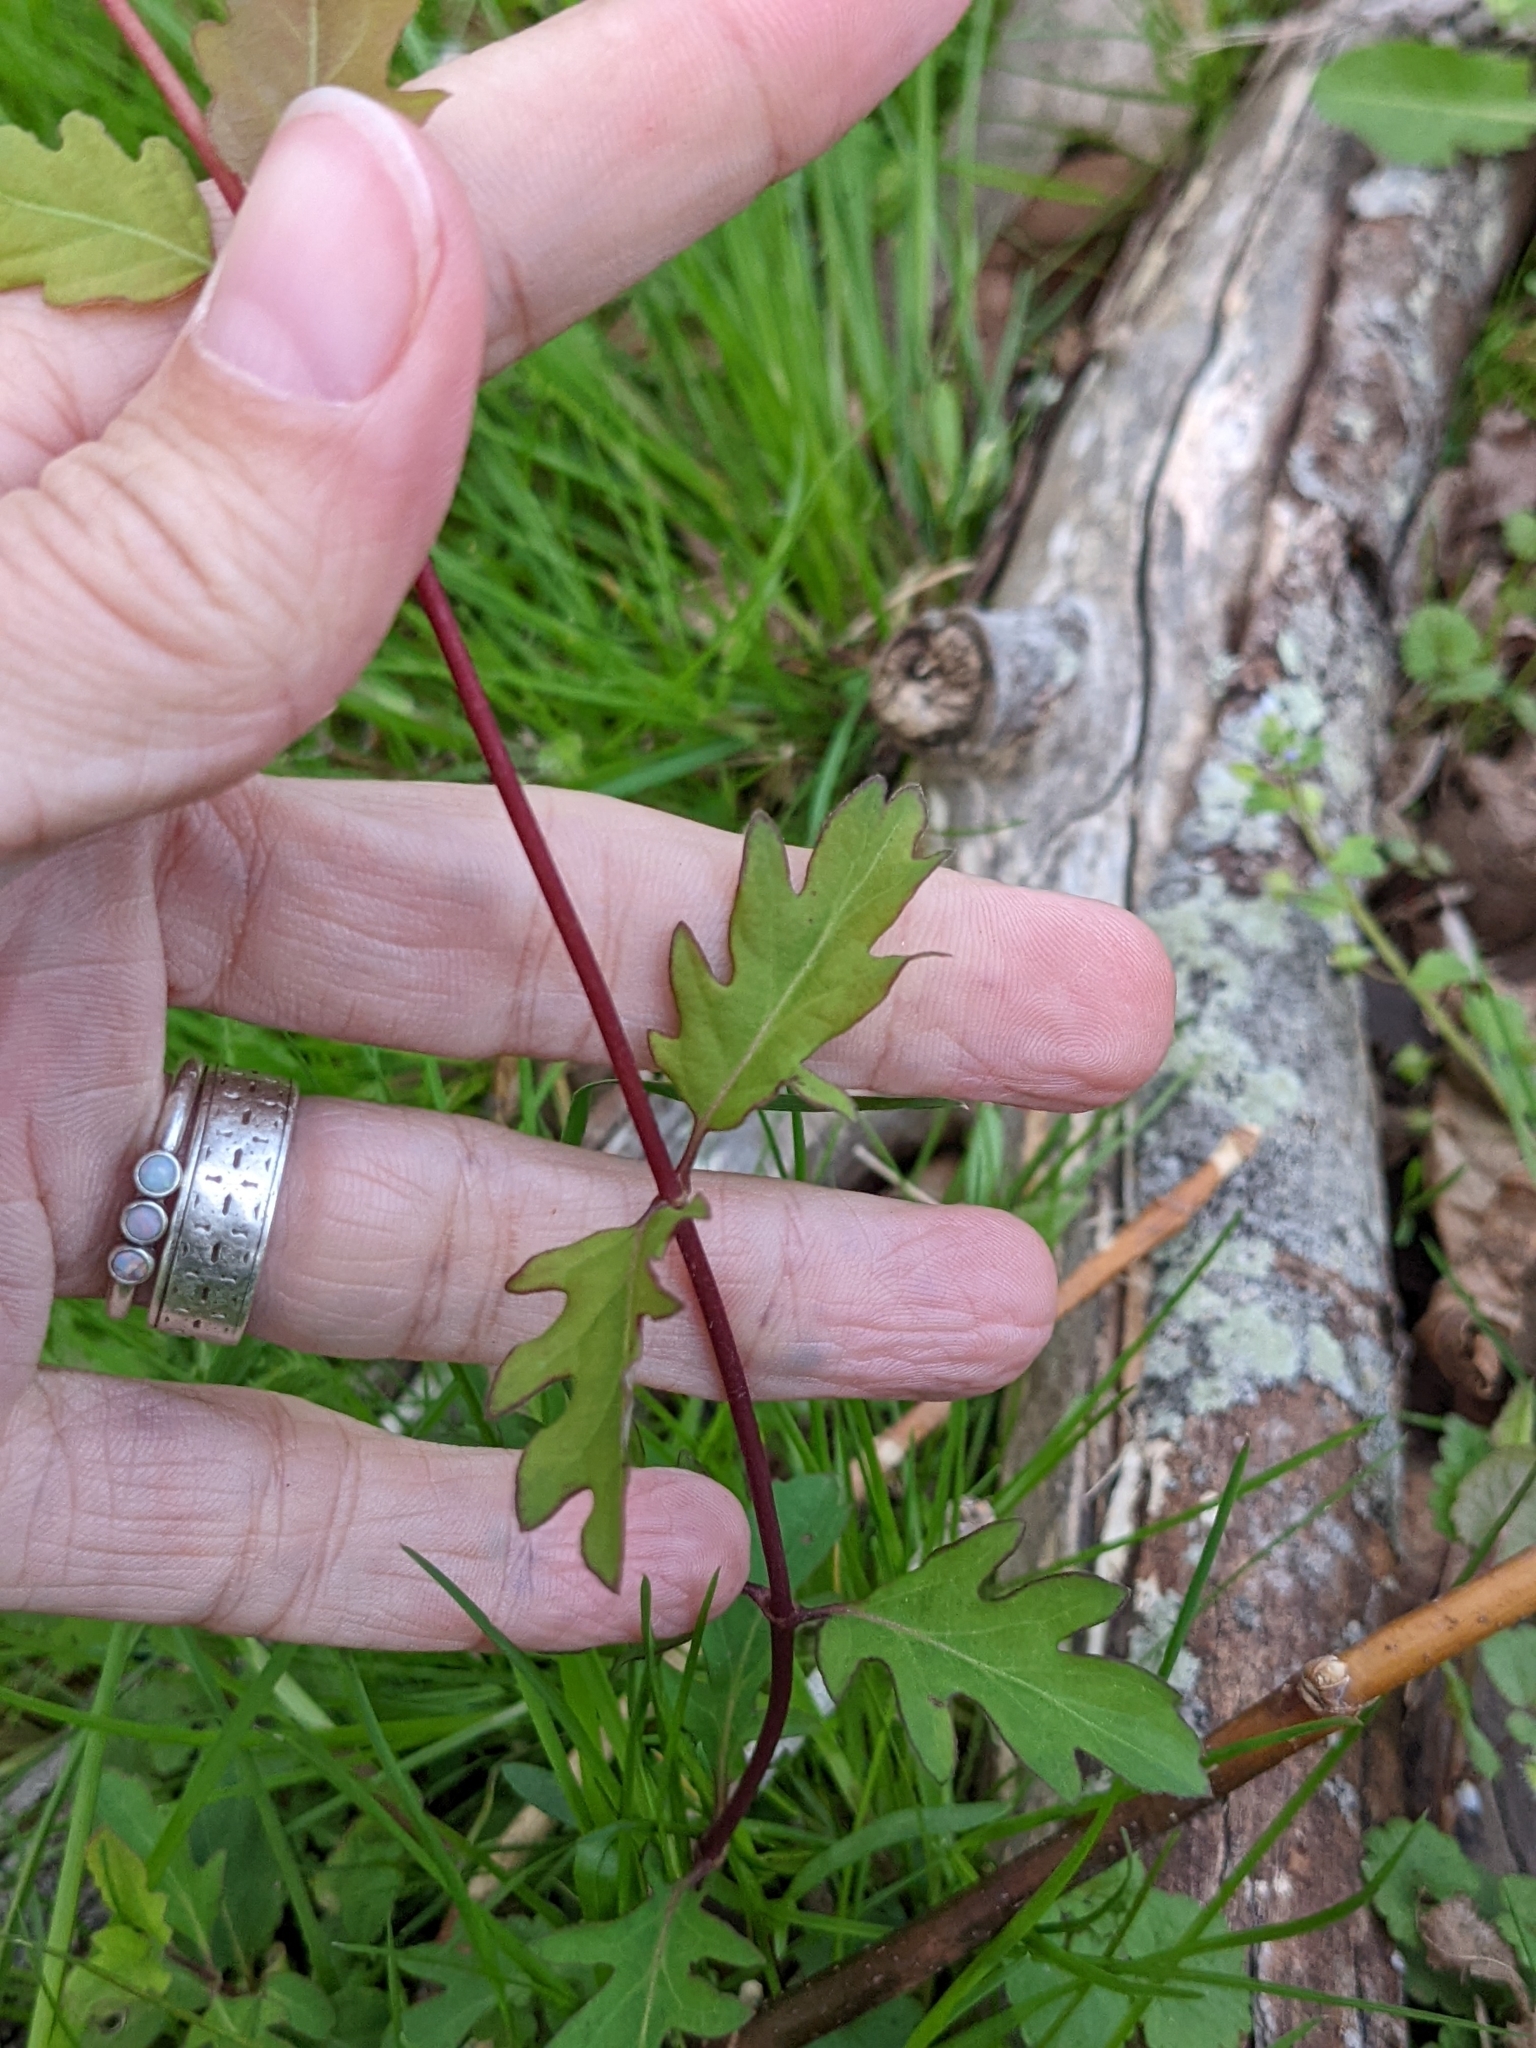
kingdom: Plantae
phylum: Tracheophyta
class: Magnoliopsida
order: Dipsacales
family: Caprifoliaceae
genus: Lonicera
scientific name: Lonicera japonica
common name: Japanese honeysuckle
